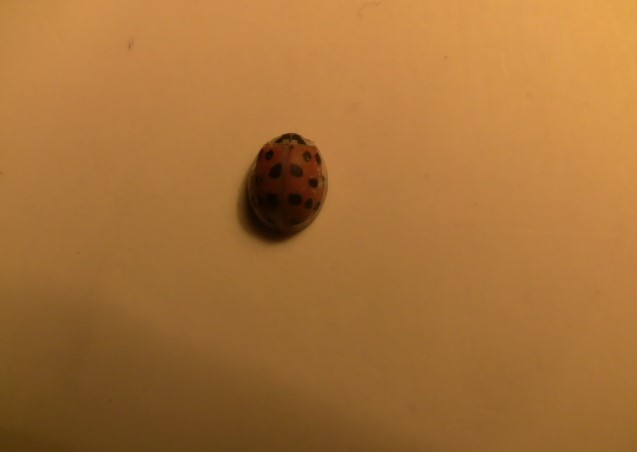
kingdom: Animalia
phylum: Arthropoda
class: Insecta
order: Coleoptera
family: Coccinellidae
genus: Harmonia
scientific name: Harmonia axyridis
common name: Harlequin ladybird
